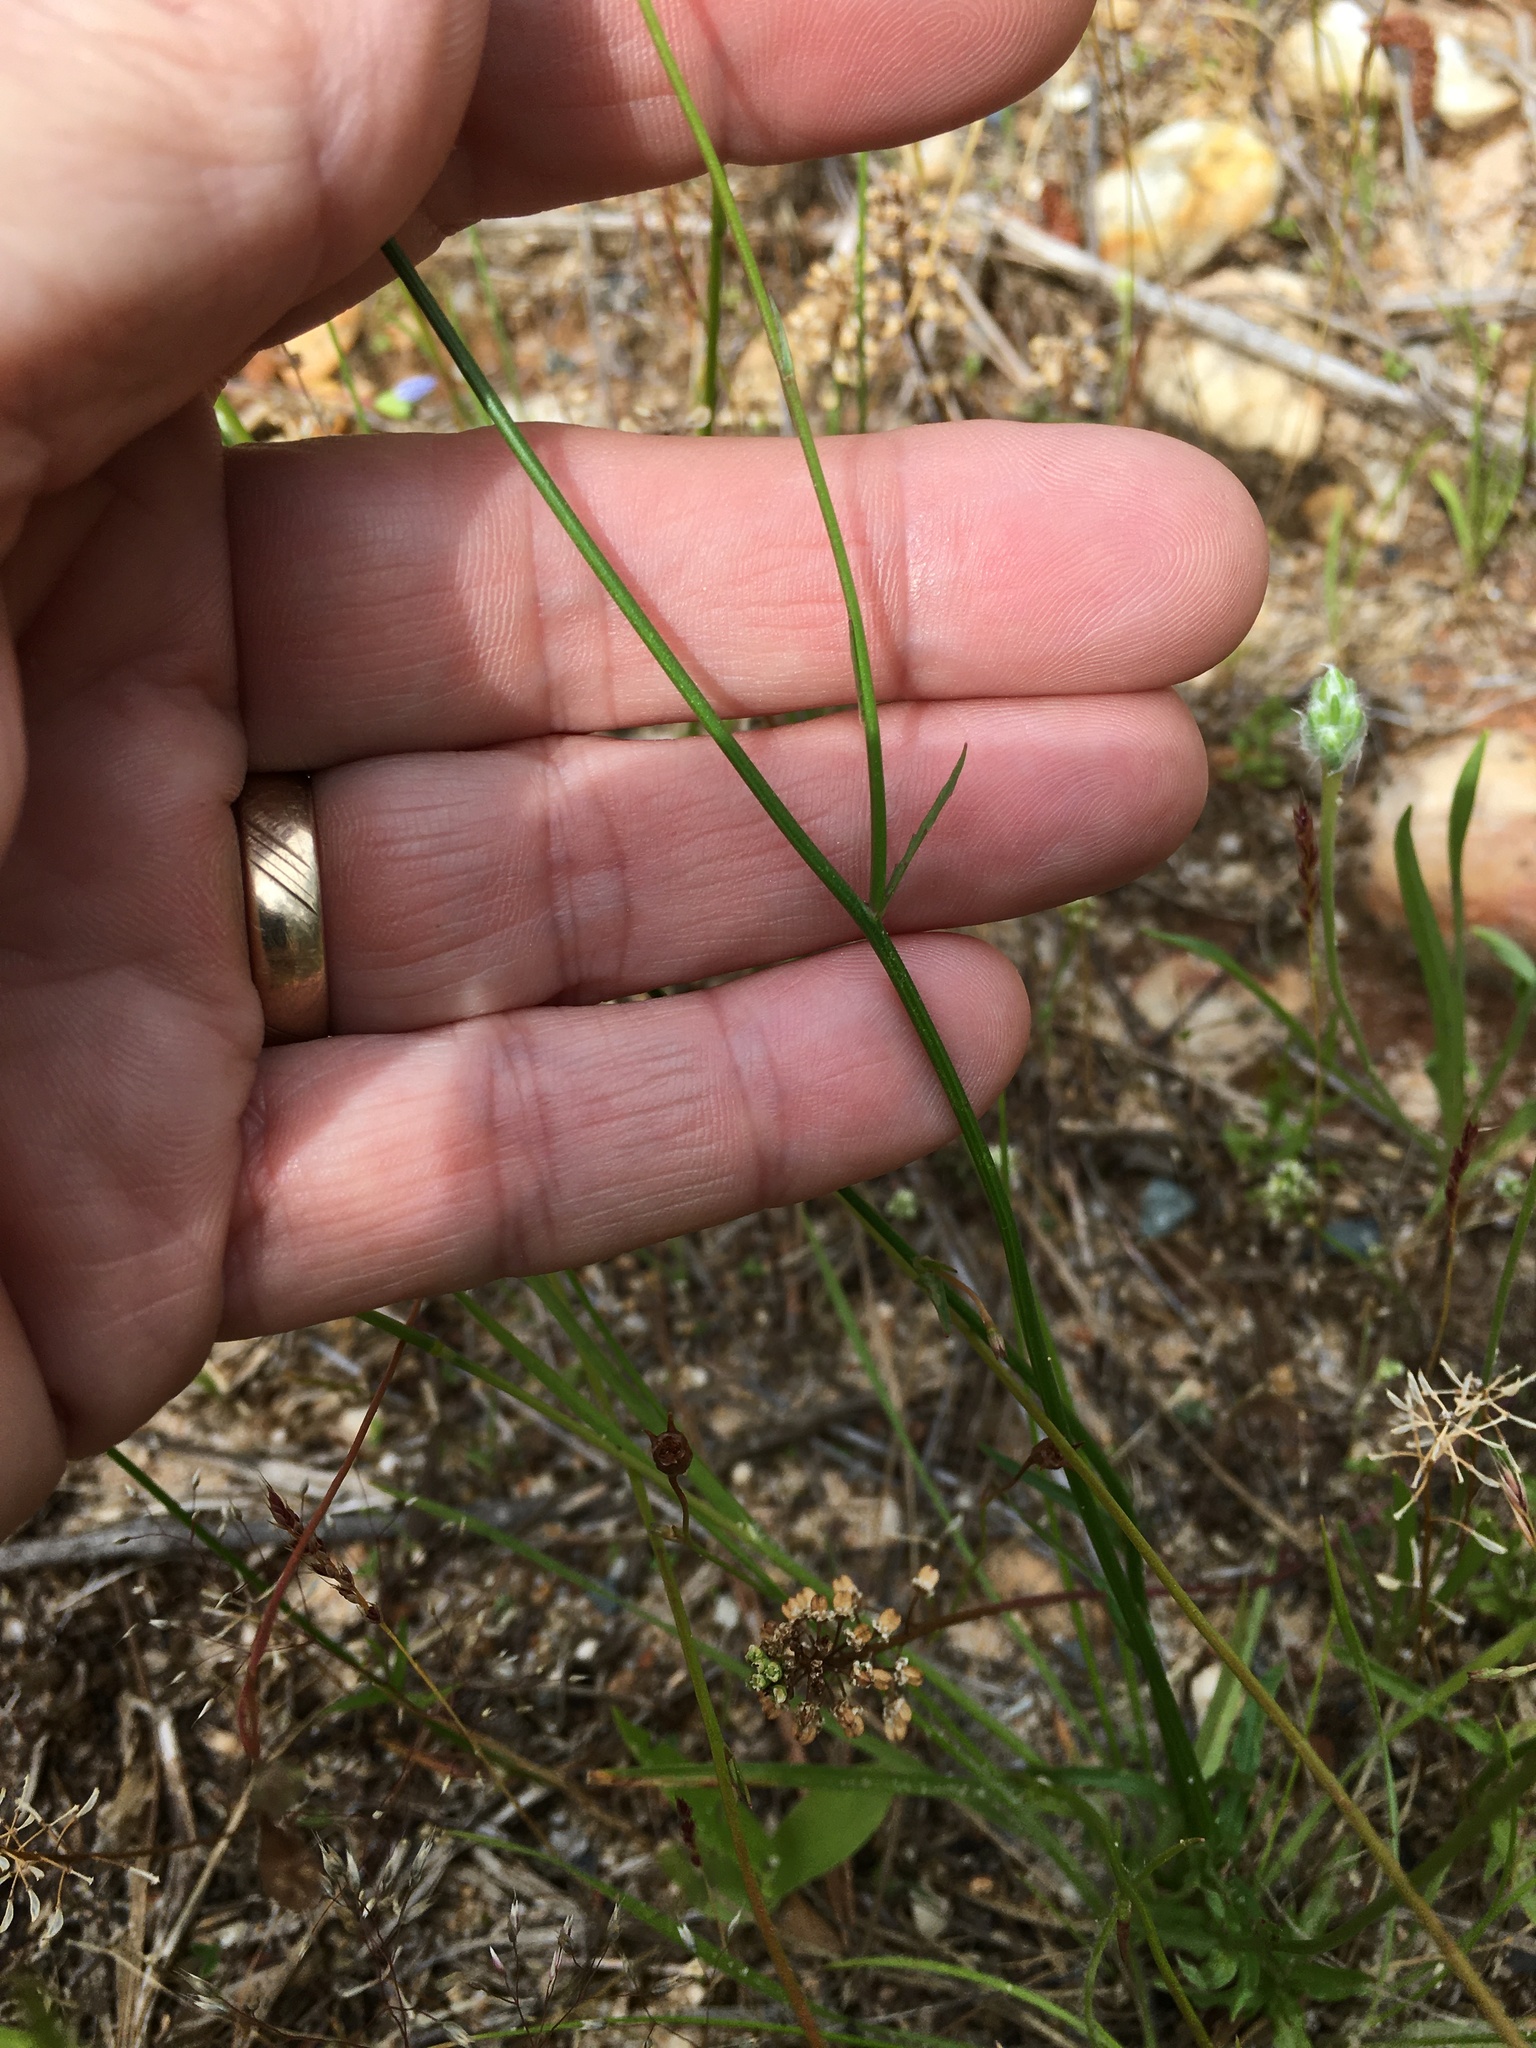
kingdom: Plantae
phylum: Tracheophyta
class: Magnoliopsida
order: Asterales
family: Campanulaceae
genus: Wahlenbergia
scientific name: Wahlenbergia marginata
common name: Southern rockbell
